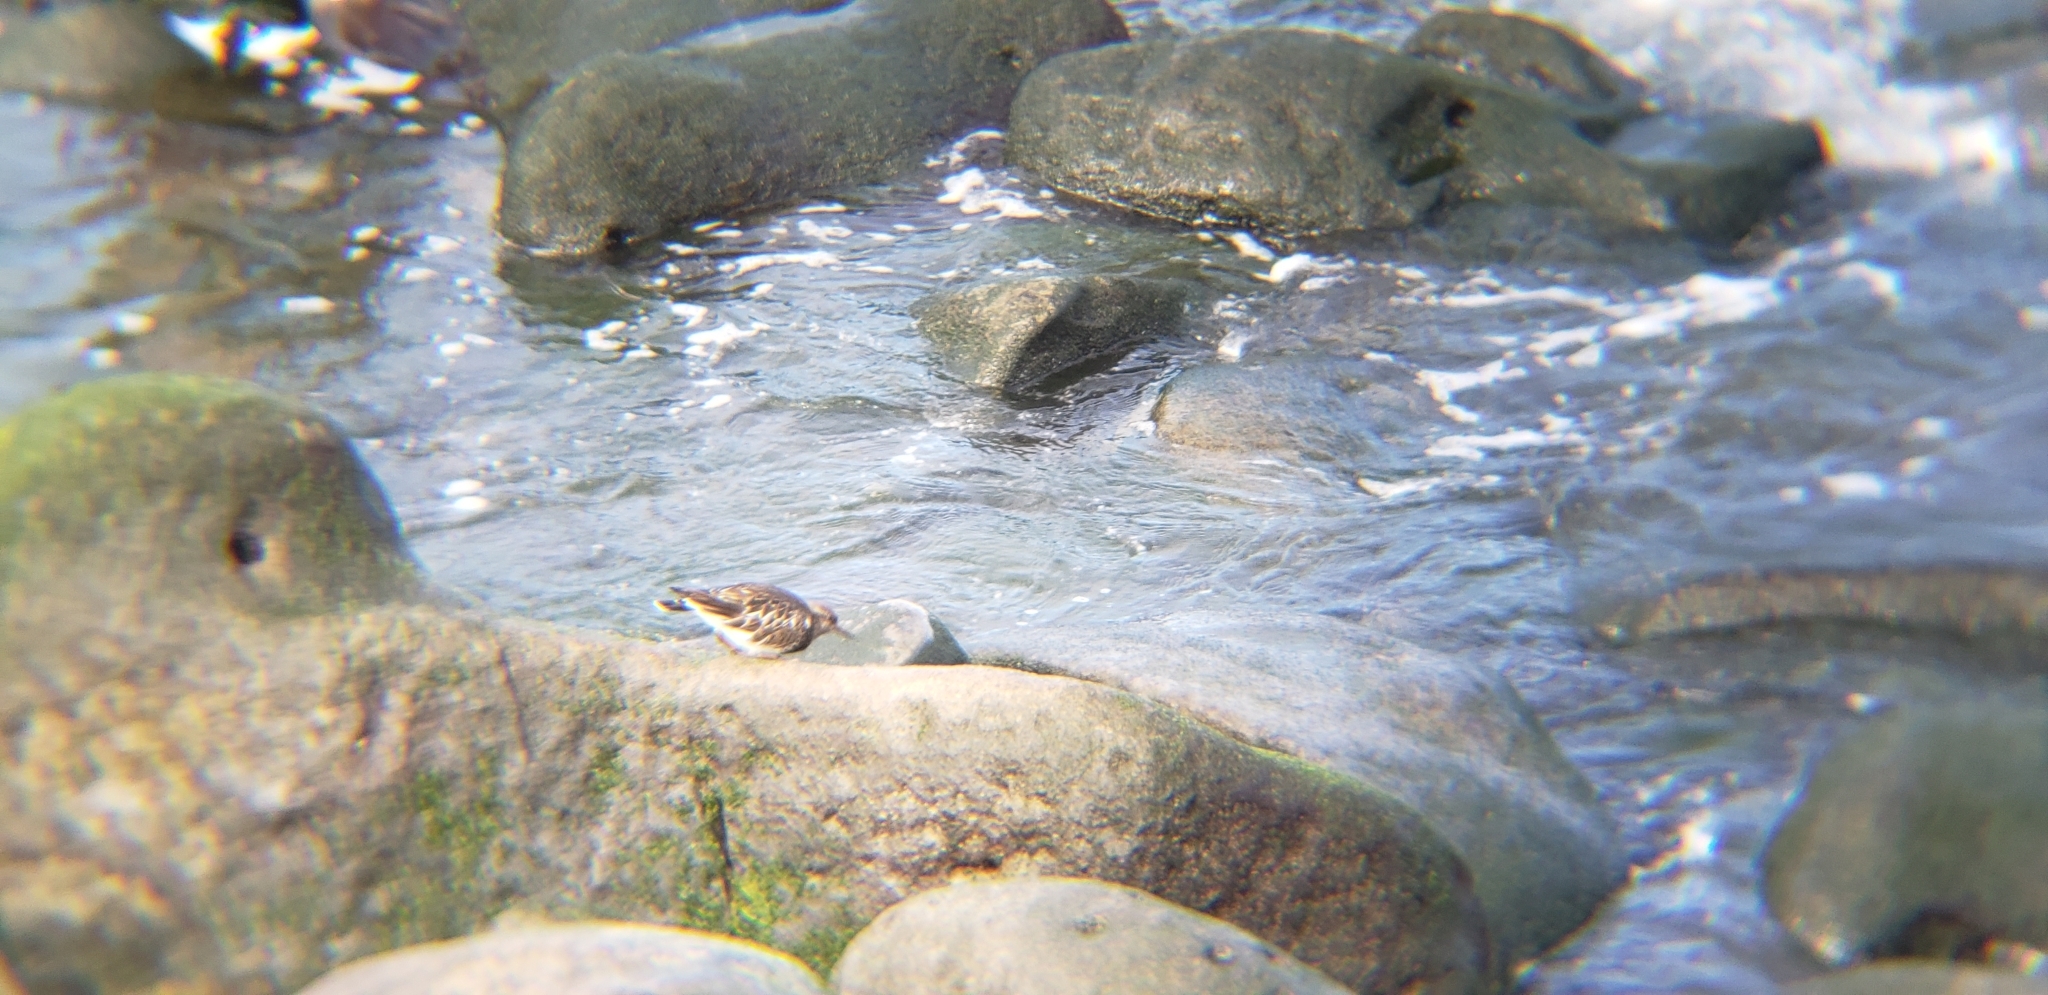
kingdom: Animalia
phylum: Chordata
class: Aves
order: Charadriiformes
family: Scolopacidae
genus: Arenaria
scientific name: Arenaria melanocephala
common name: Black turnstone
